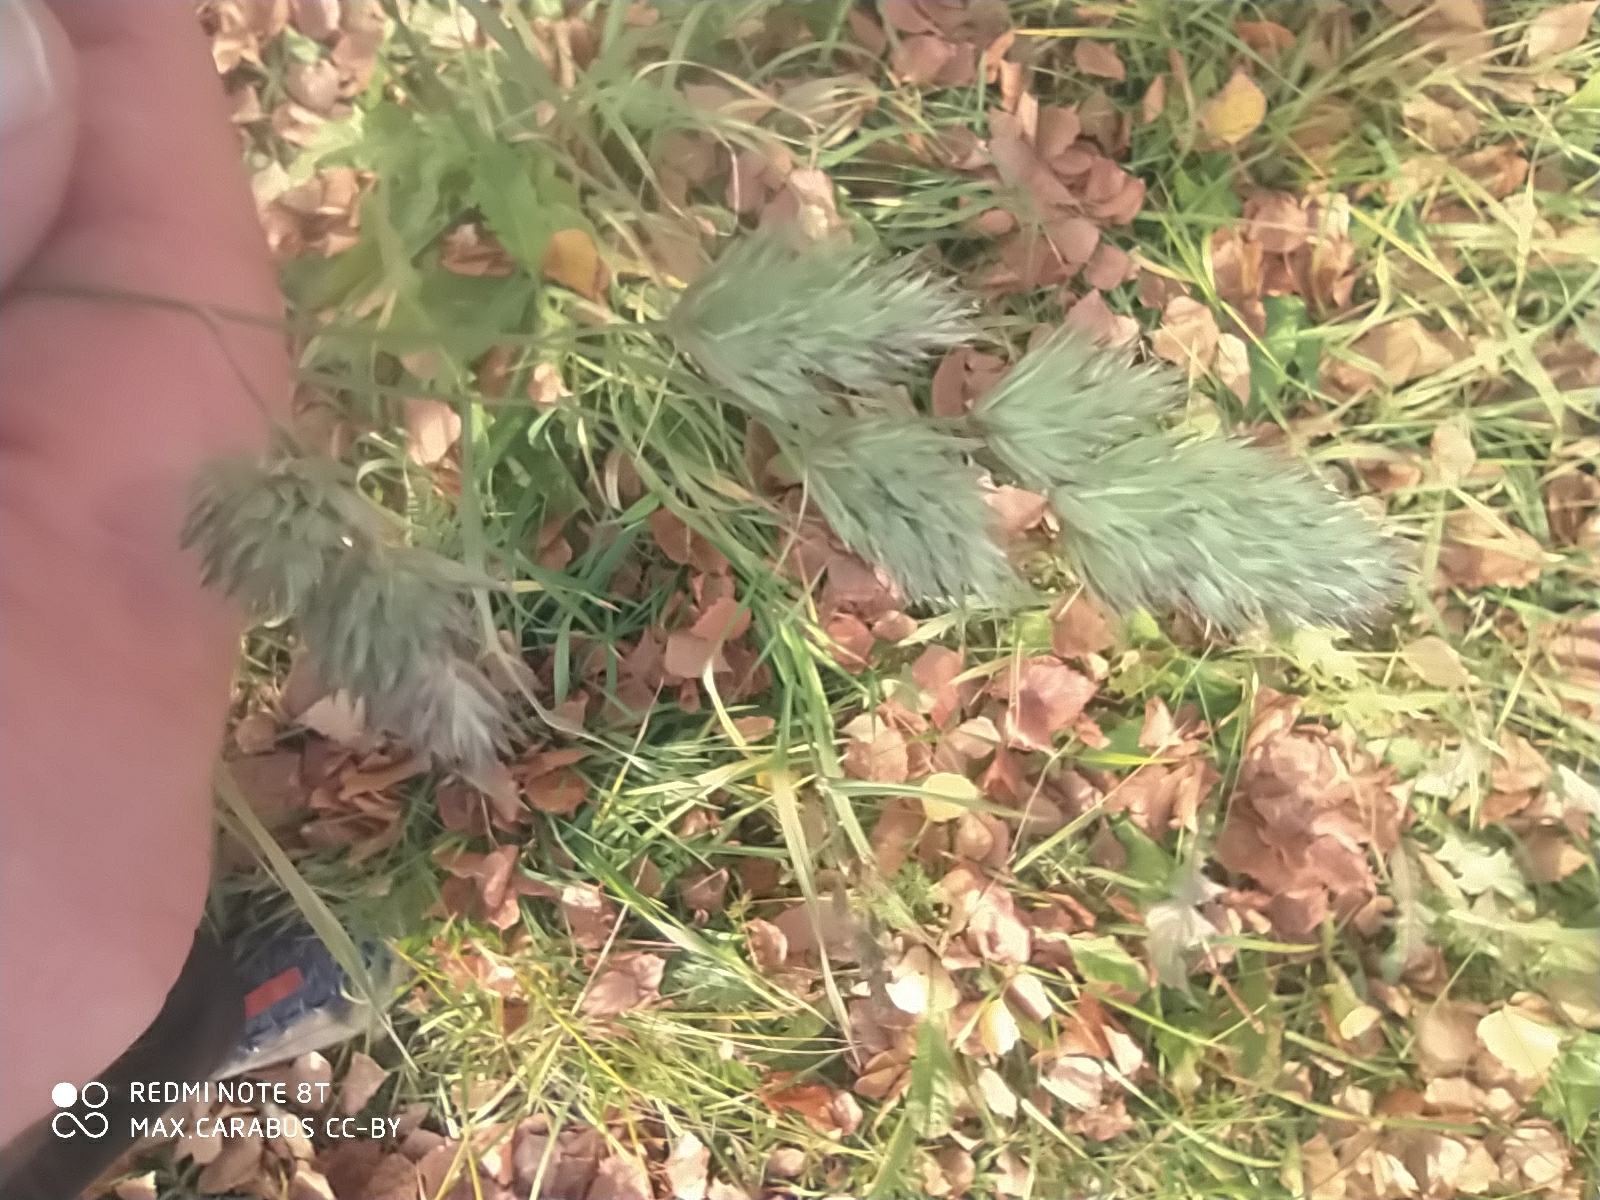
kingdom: Plantae
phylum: Tracheophyta
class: Liliopsida
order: Poales
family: Poaceae
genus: Dactylis
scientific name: Dactylis glomerata
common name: Orchardgrass
